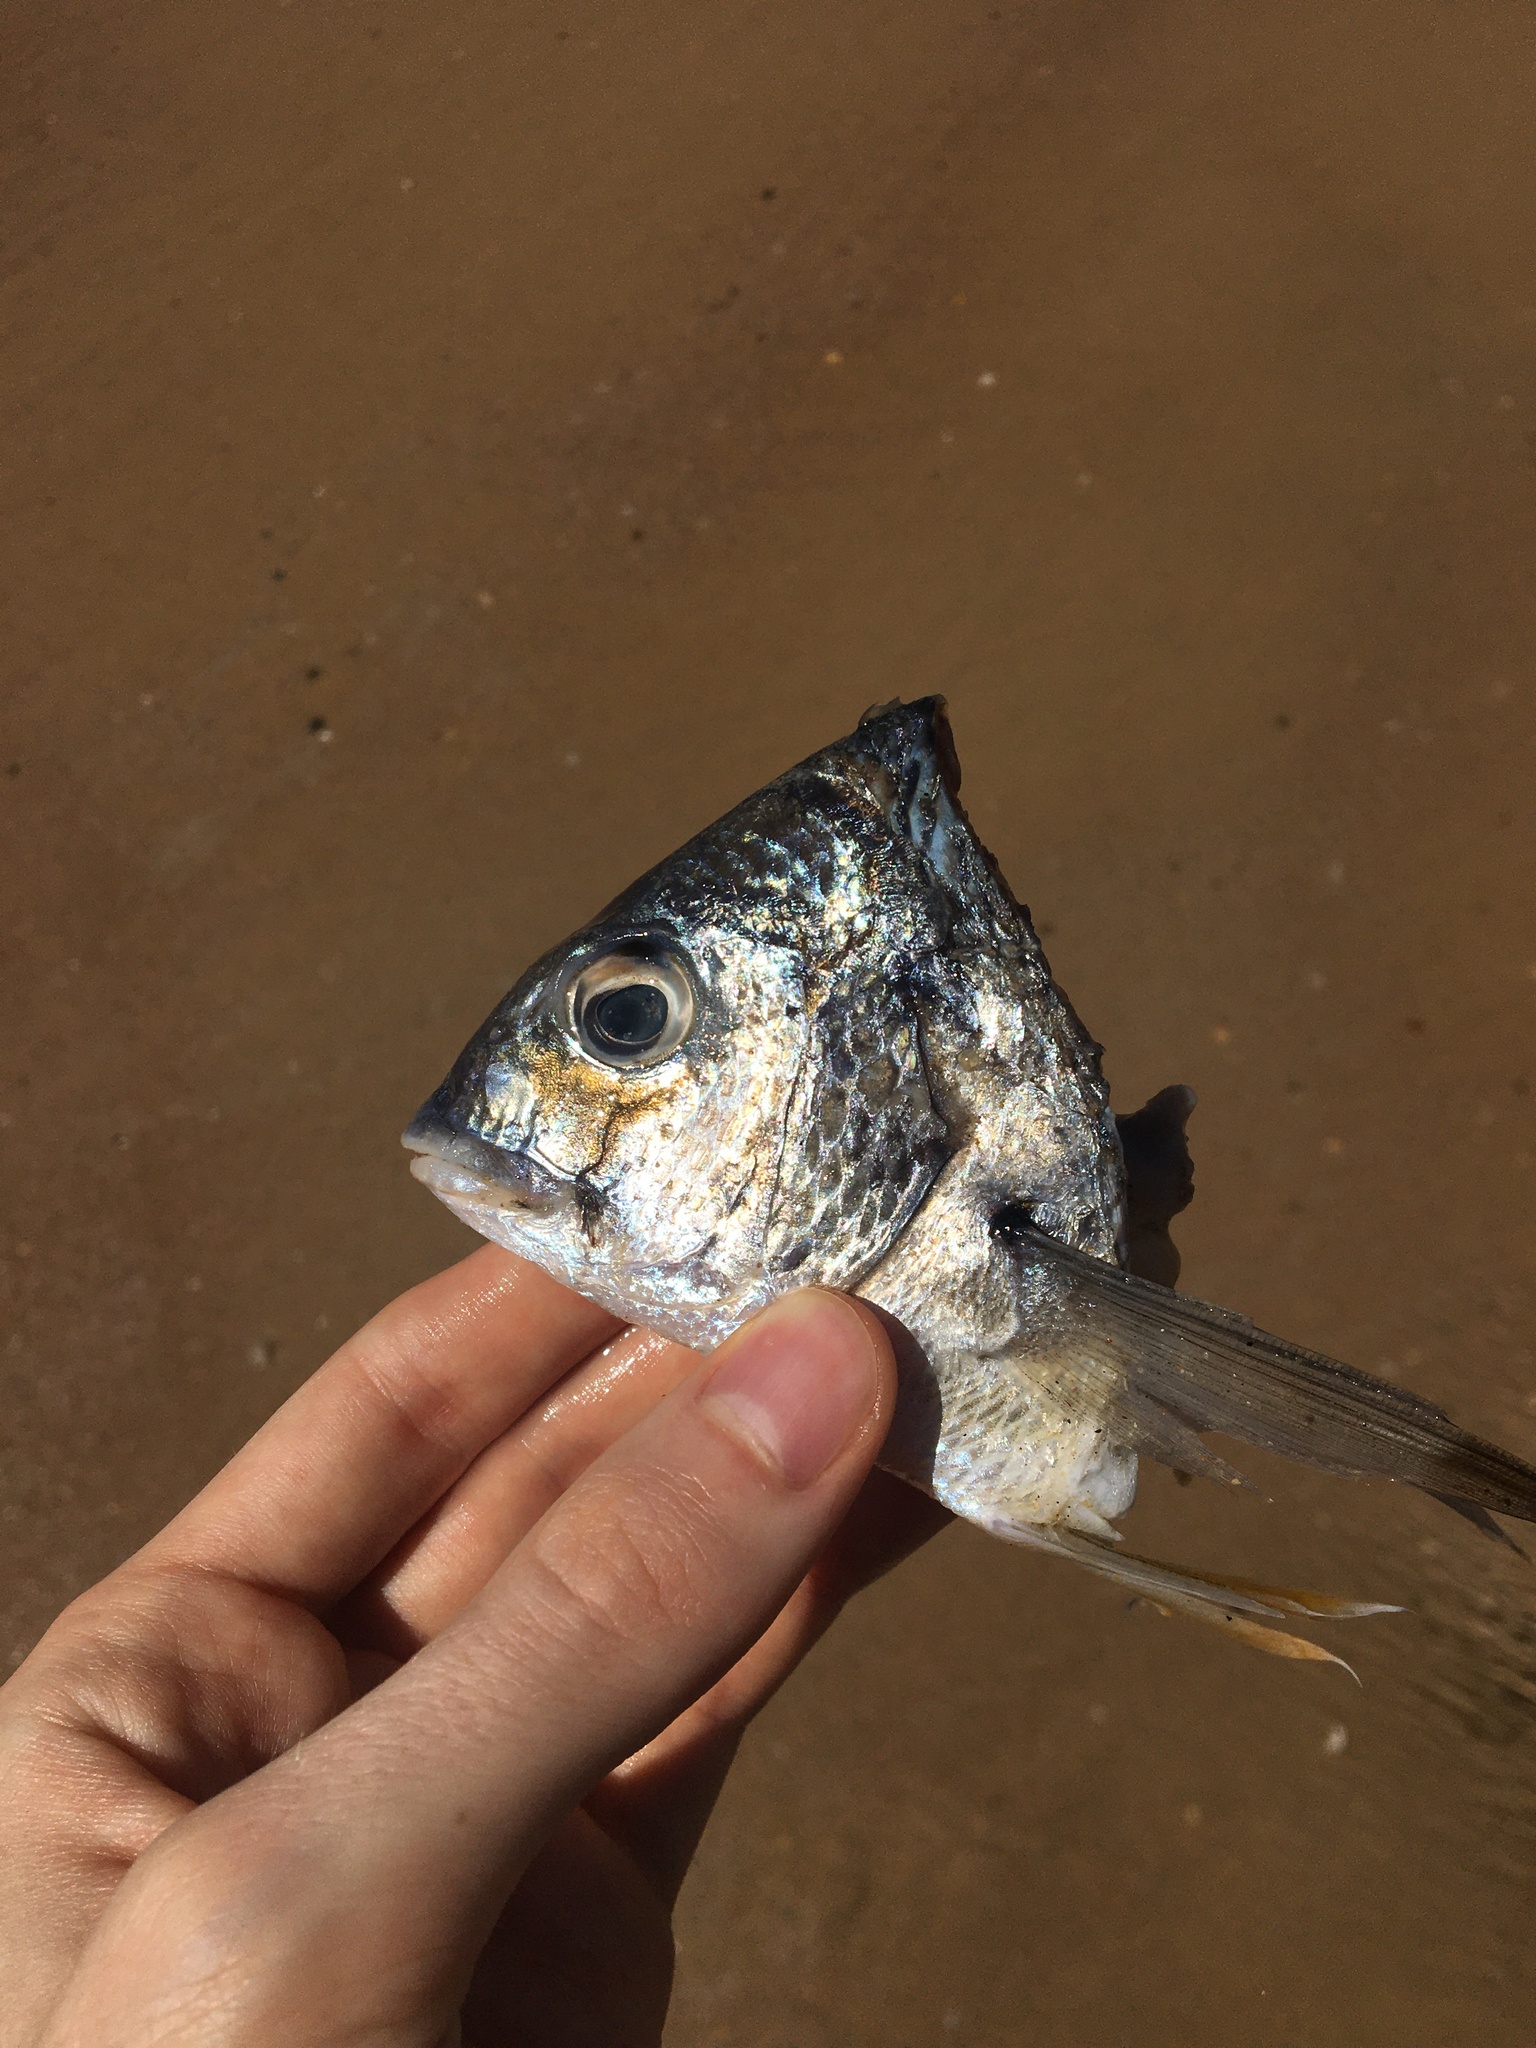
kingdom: Animalia
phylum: Chordata
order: Perciformes
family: Sparidae
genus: Acanthopagrus
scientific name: Acanthopagrus australis
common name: Surf bream
